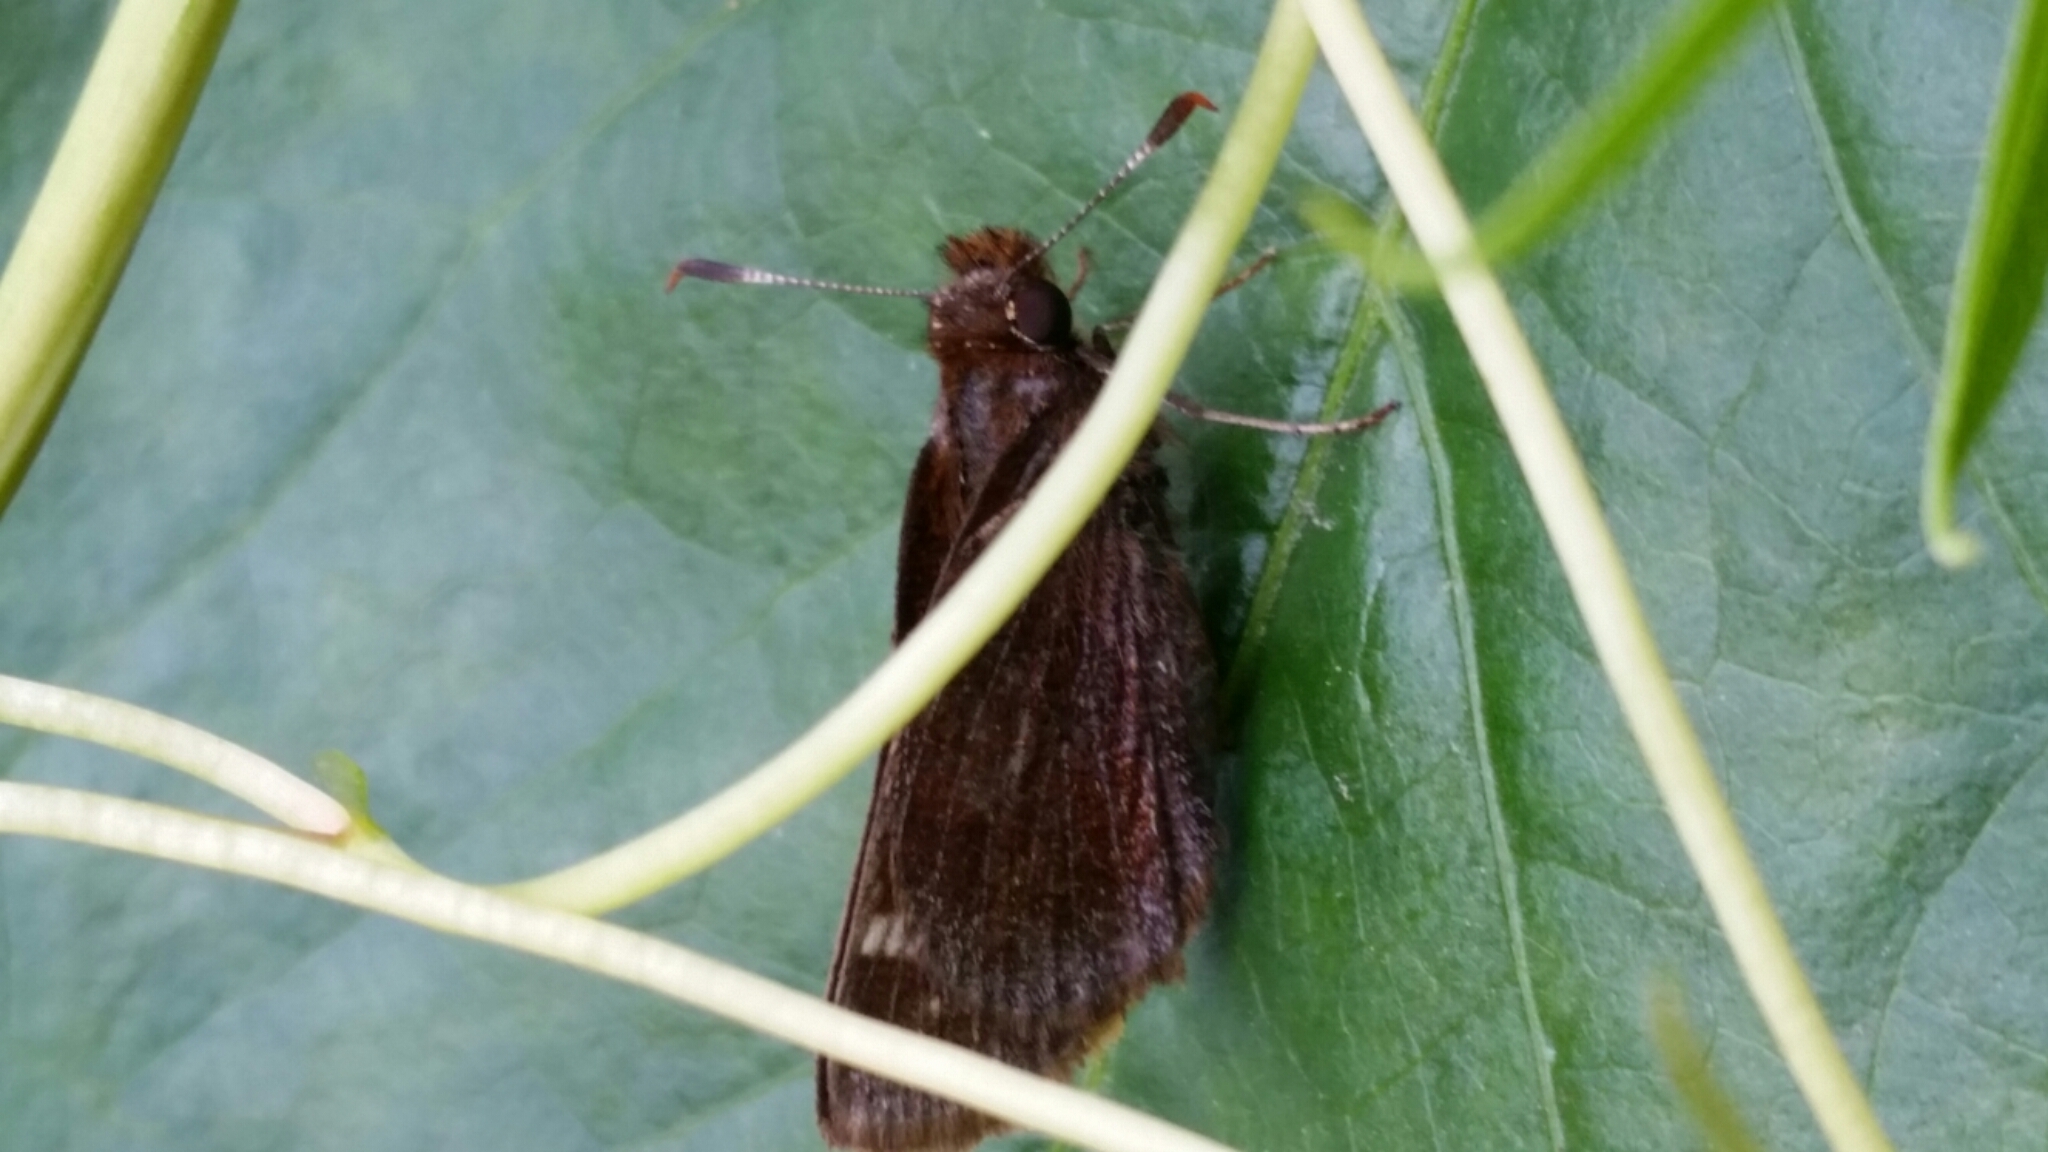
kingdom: Animalia
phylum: Arthropoda
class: Insecta
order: Lepidoptera
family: Hesperiidae
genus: Lon
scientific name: Lon hobomok
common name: Hobomok skipper
